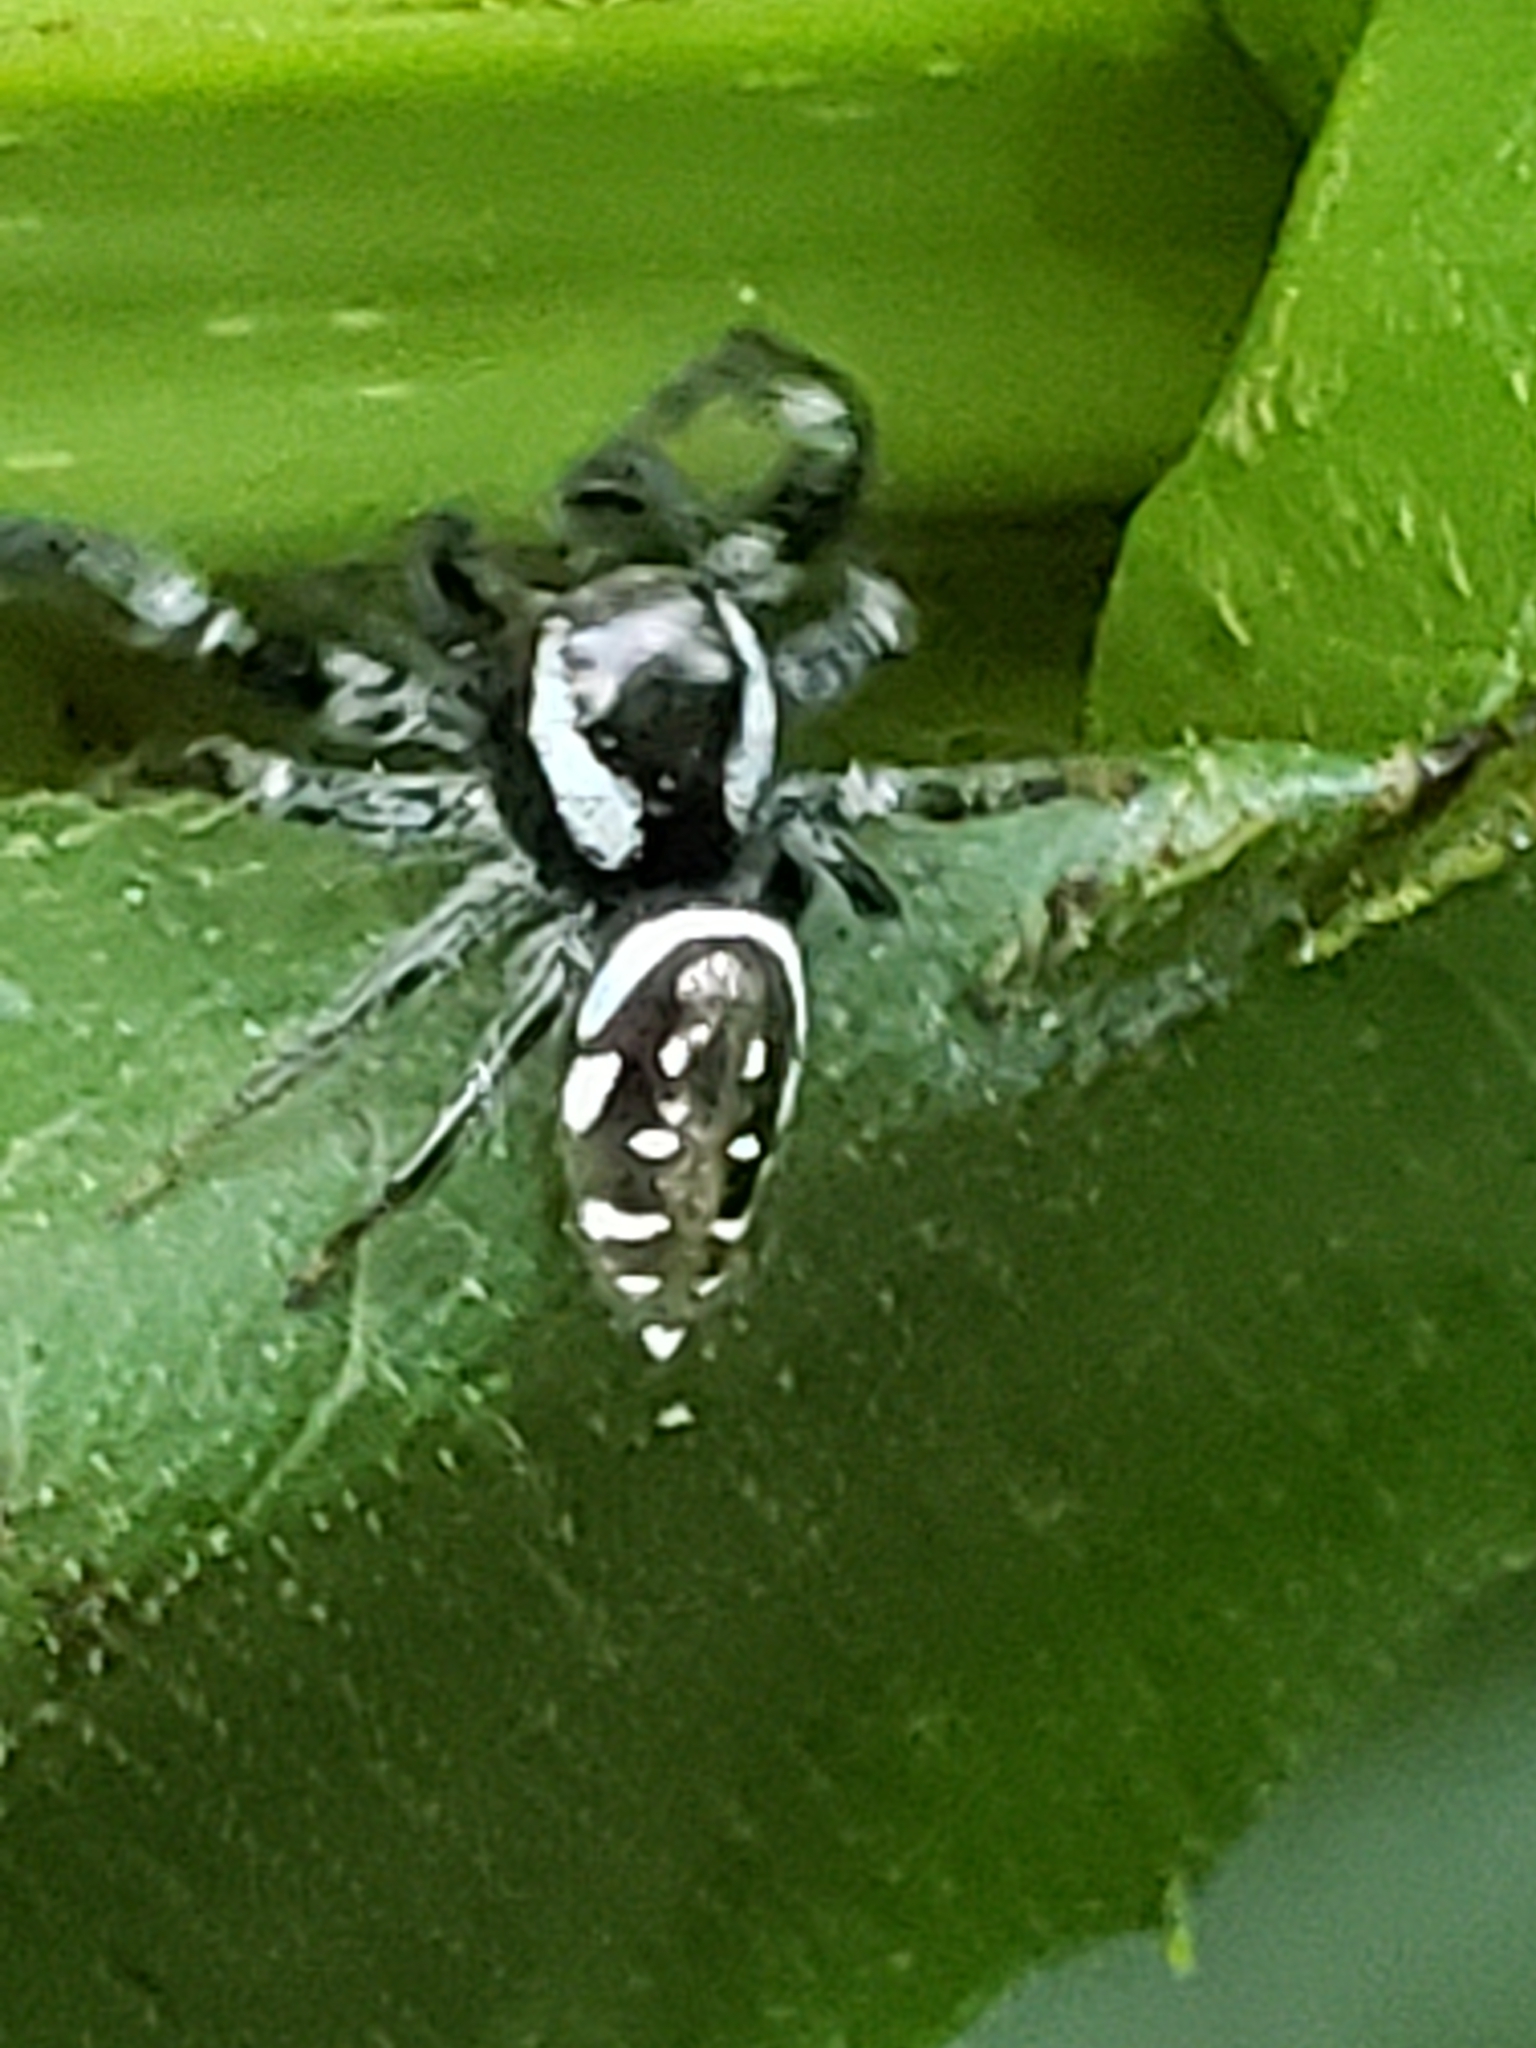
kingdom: Animalia
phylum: Arthropoda
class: Arachnida
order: Araneae
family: Salticidae
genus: Paraphidippus
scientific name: Paraphidippus aurantius
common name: Jumping spiders
